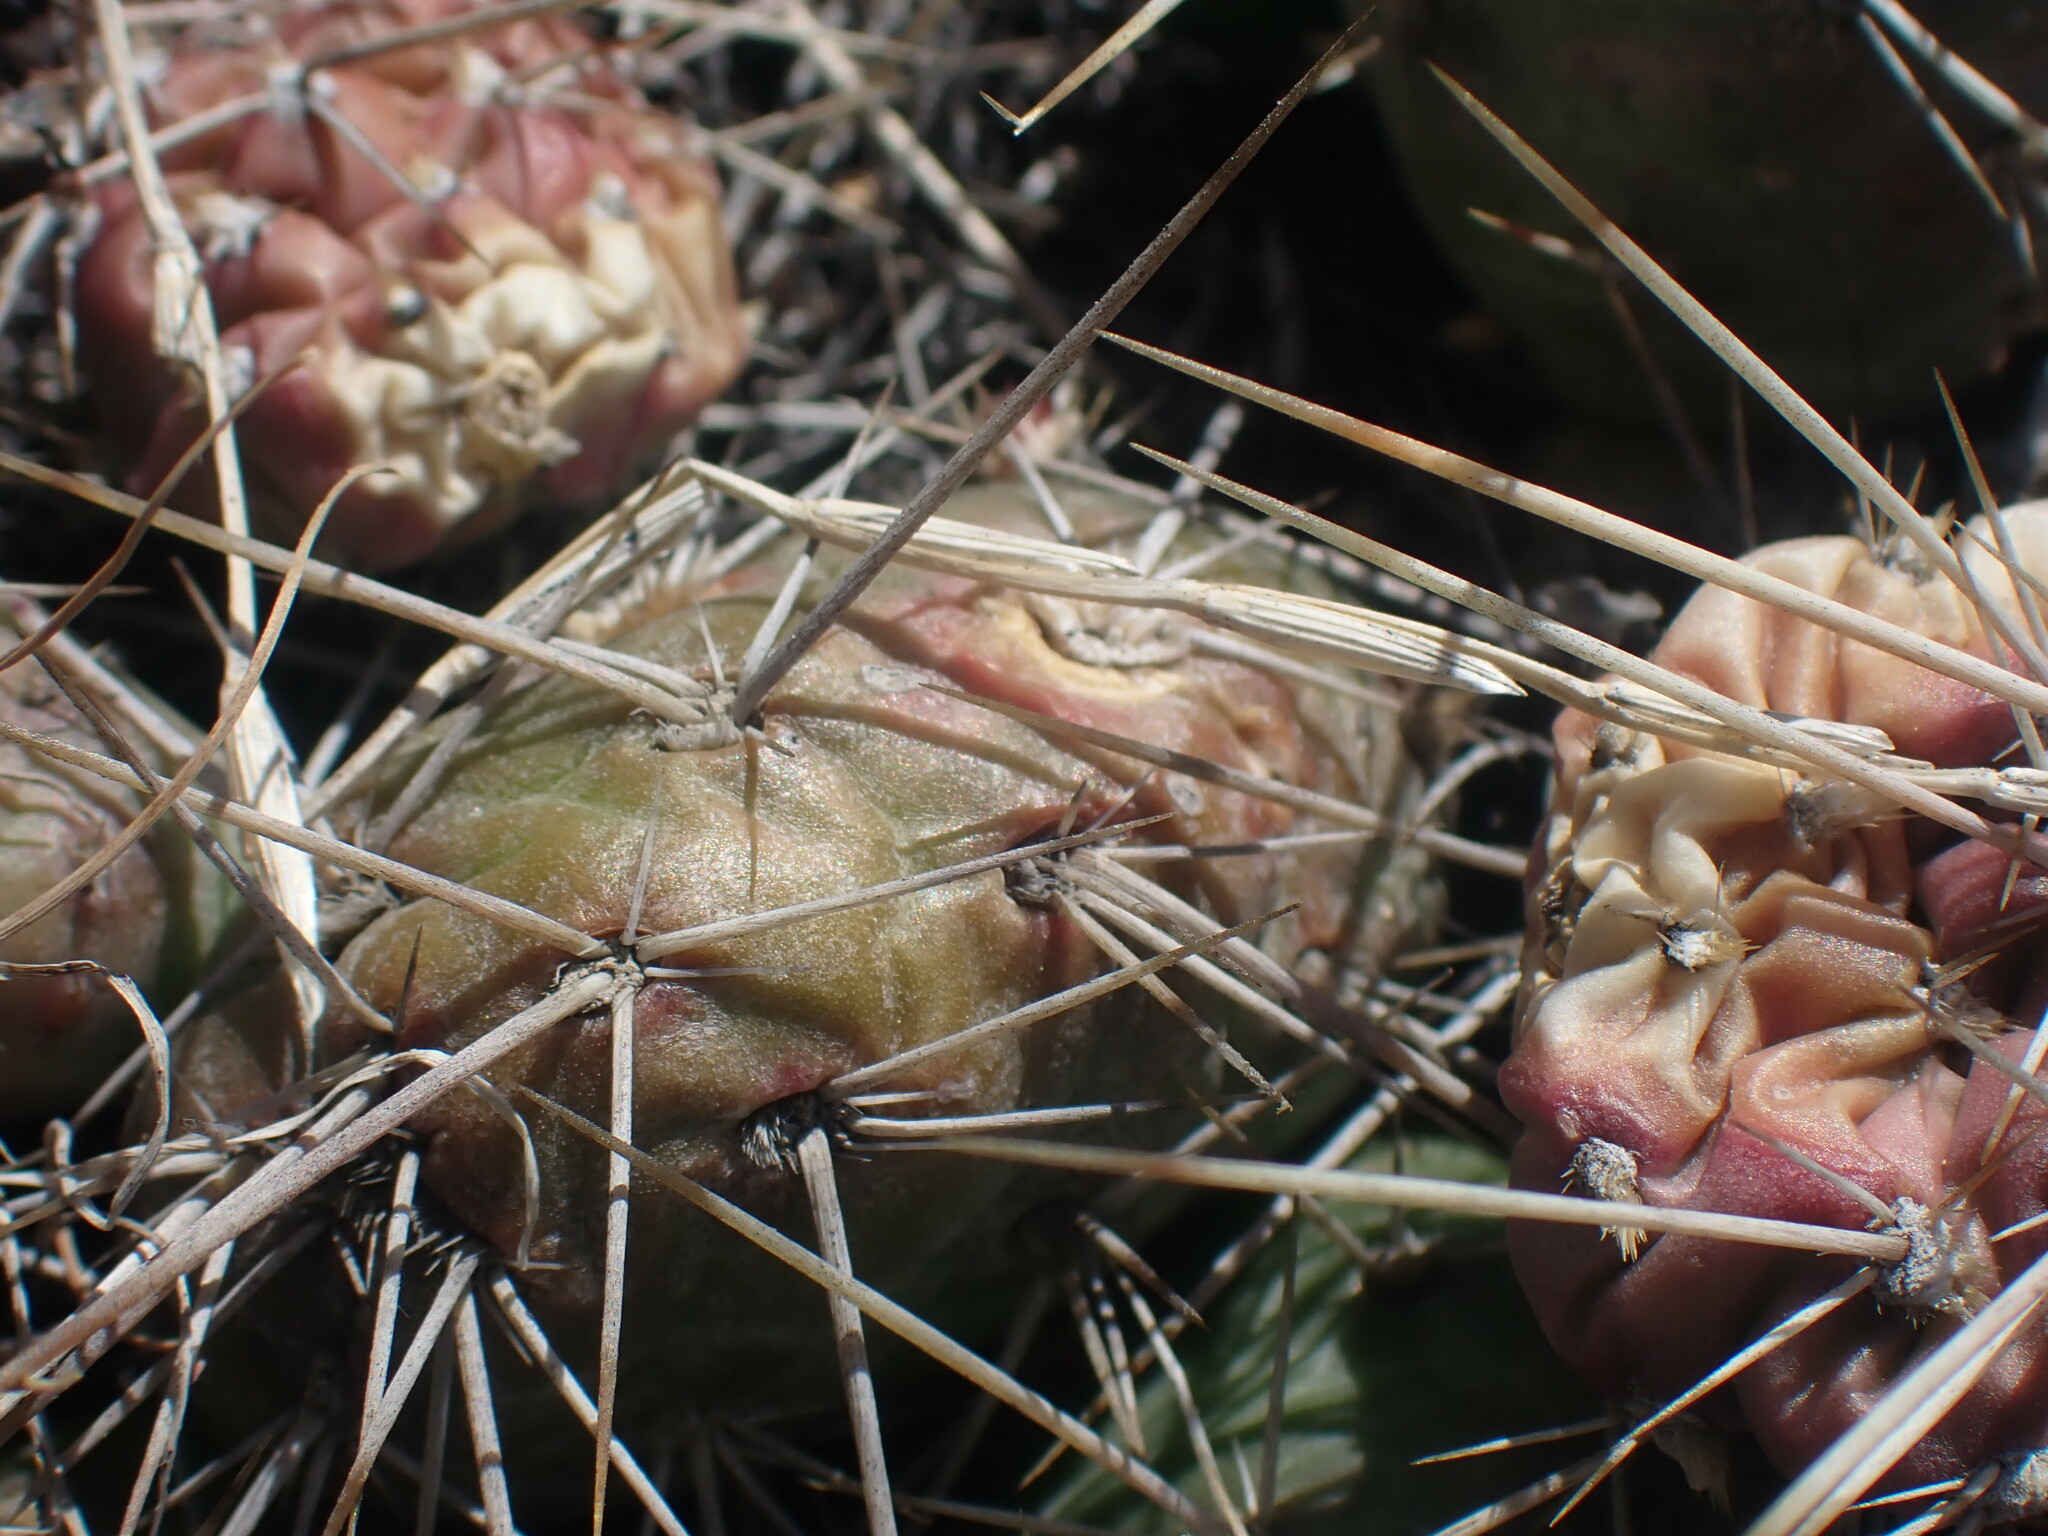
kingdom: Plantae
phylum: Tracheophyta
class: Magnoliopsida
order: Caryophyllales
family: Cactaceae
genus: Opuntia
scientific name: Opuntia fragilis
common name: Brittle cactus
